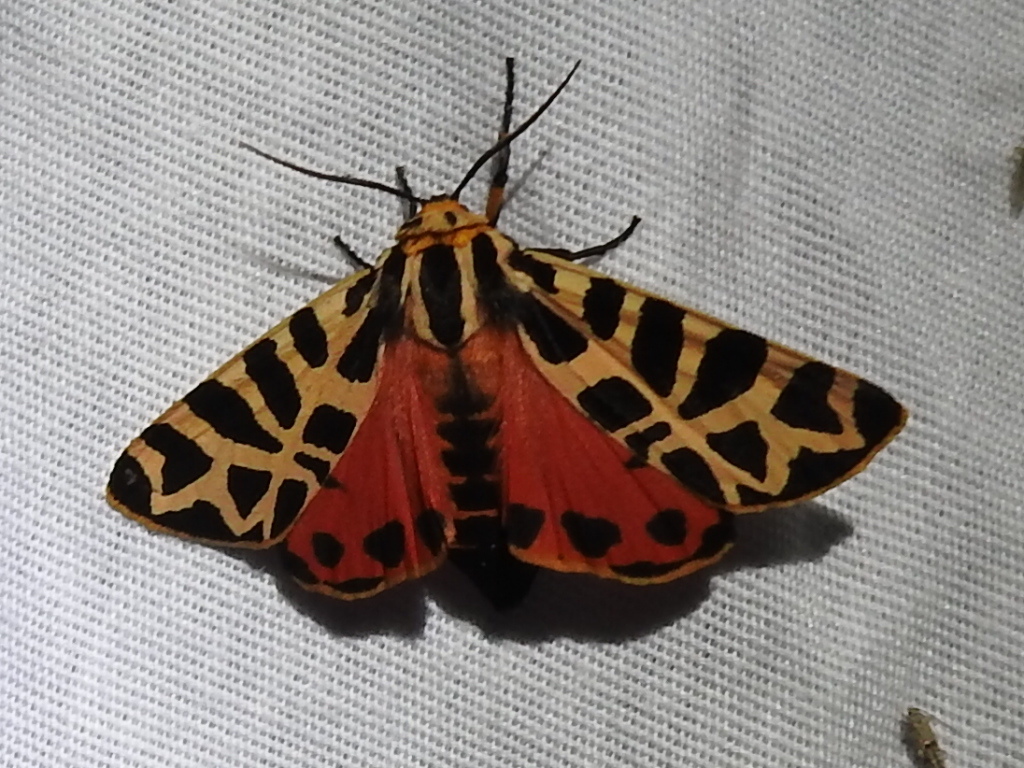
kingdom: Animalia
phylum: Arthropoda
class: Insecta
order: Lepidoptera
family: Erebidae
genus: Apantesis
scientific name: Apantesis incorrupta
